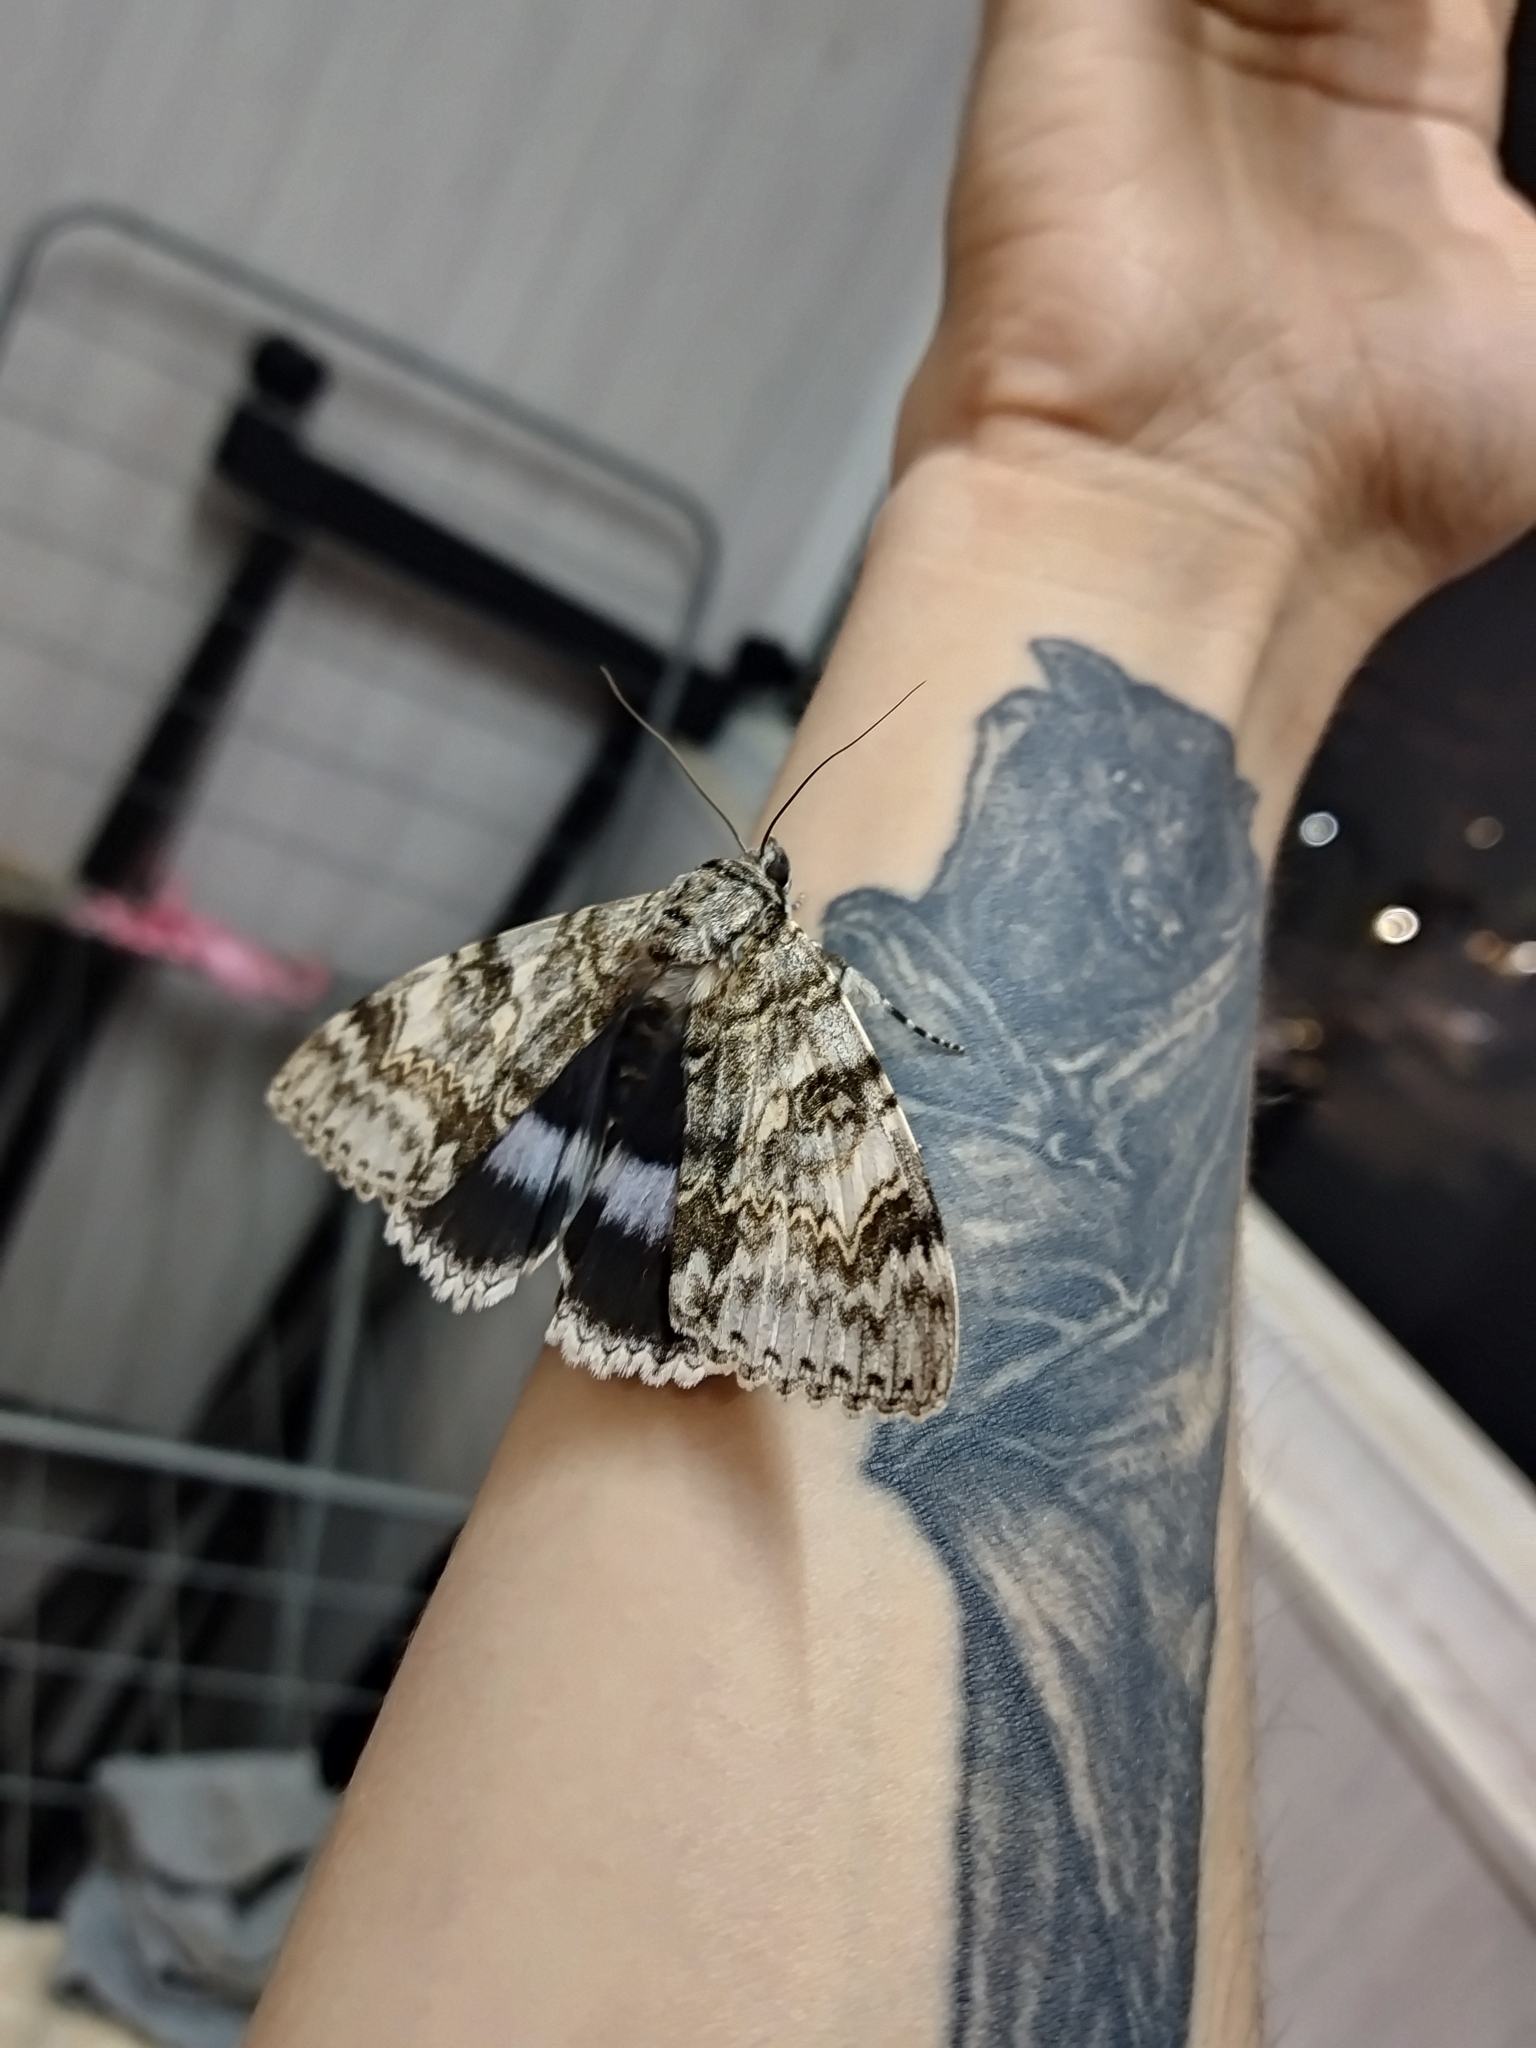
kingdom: Animalia
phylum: Arthropoda
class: Insecta
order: Lepidoptera
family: Erebidae
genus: Catocala
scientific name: Catocala fraxini
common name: Clifden nonpareil
